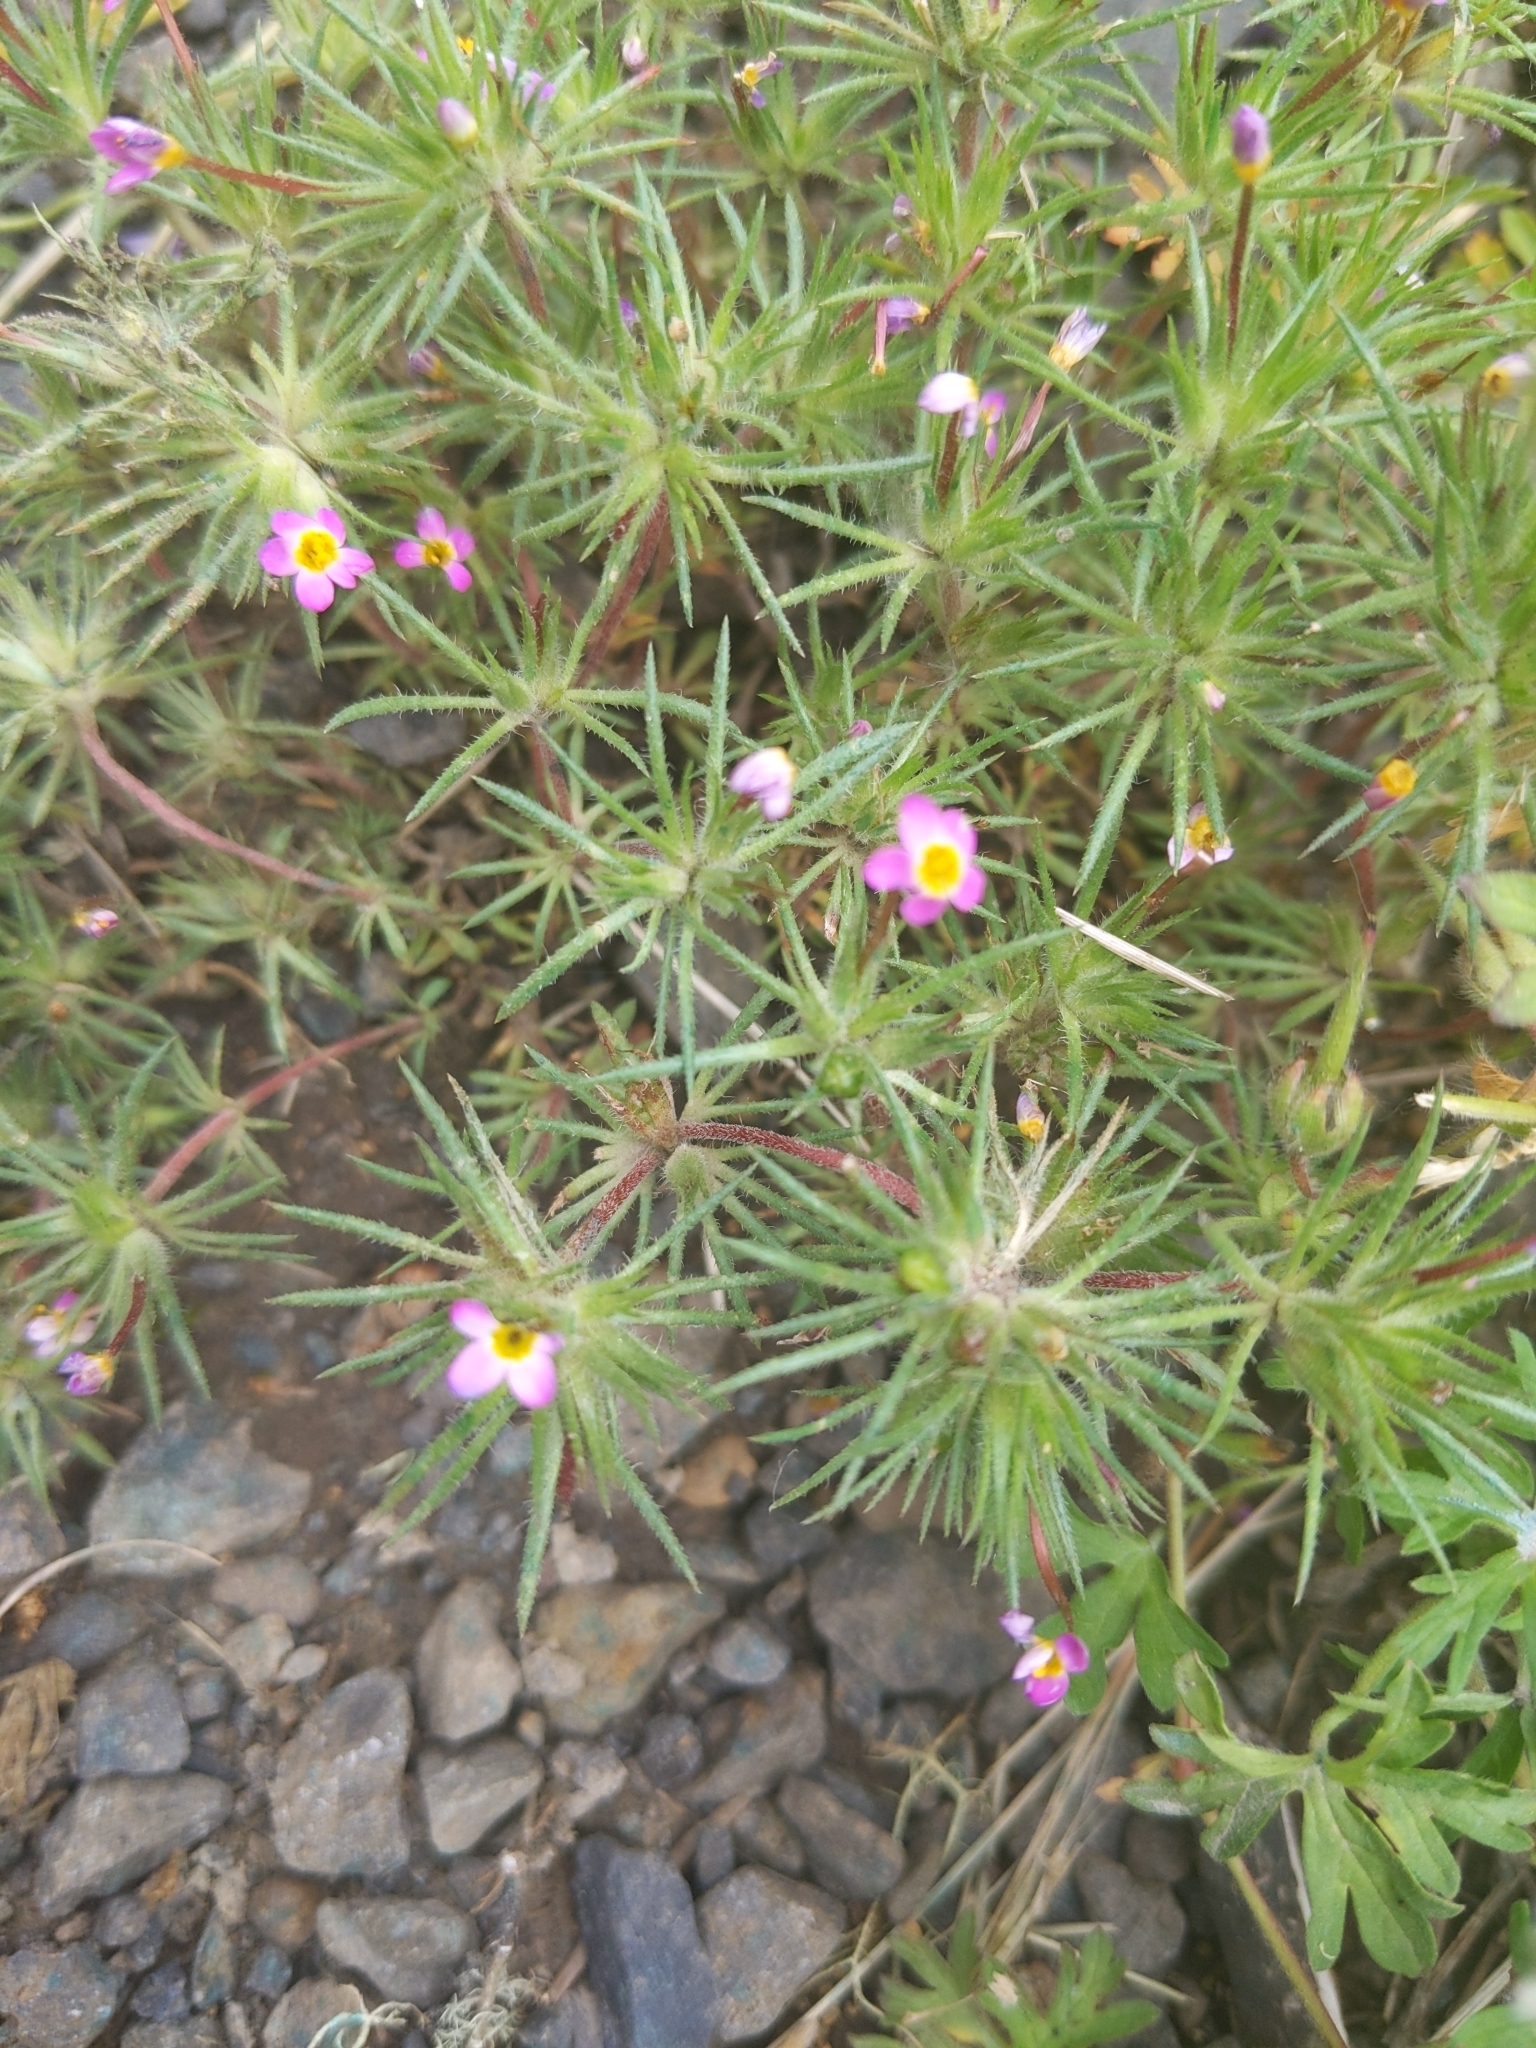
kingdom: Plantae
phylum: Tracheophyta
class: Magnoliopsida
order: Ericales
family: Polemoniaceae
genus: Leptosiphon
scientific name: Leptosiphon bicolor
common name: True babystars
